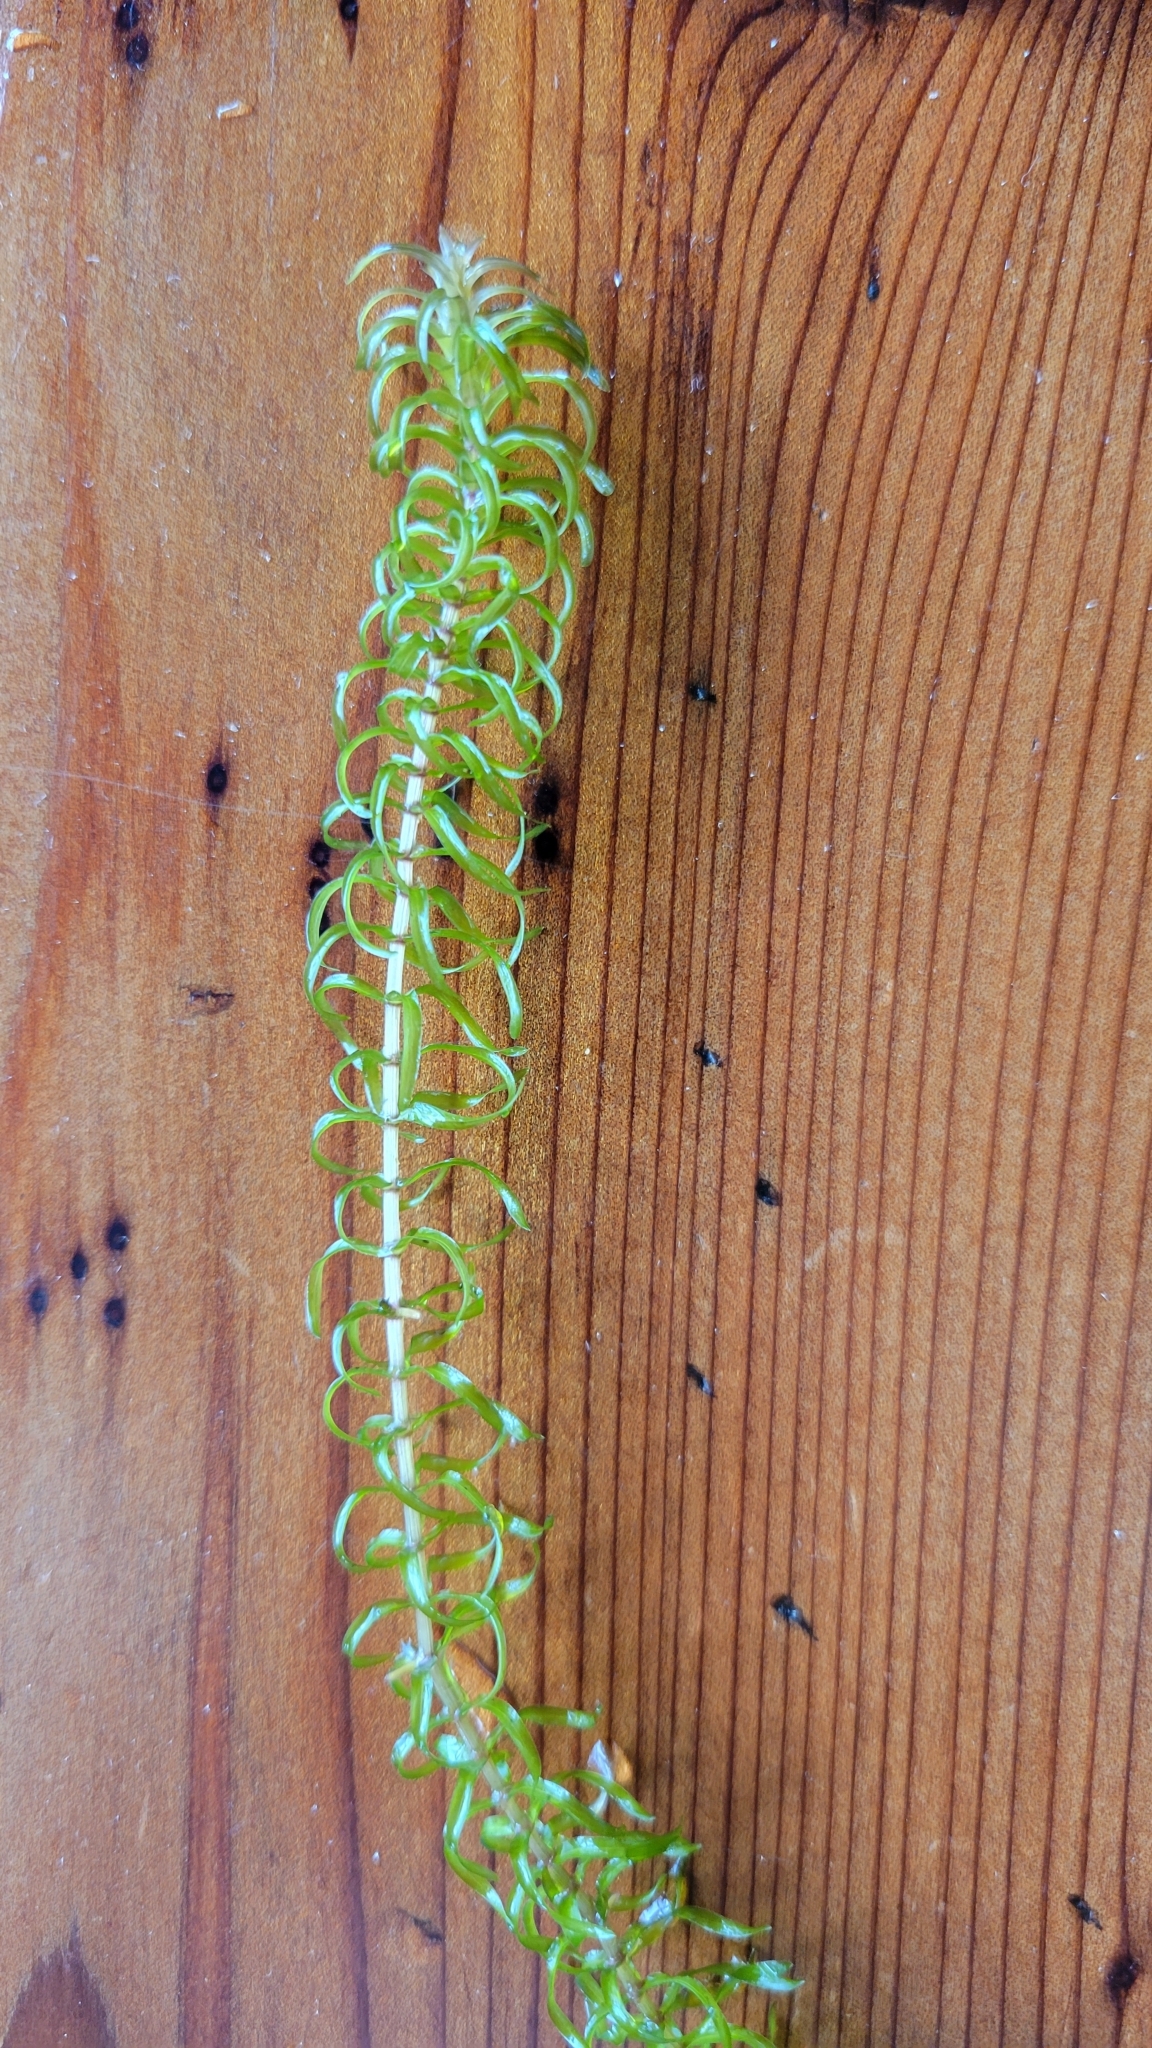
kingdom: Plantae
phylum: Tracheophyta
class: Liliopsida
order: Alismatales
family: Hydrocharitaceae
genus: Elodea
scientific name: Elodea nuttallii
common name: Nuttall's waterweed
